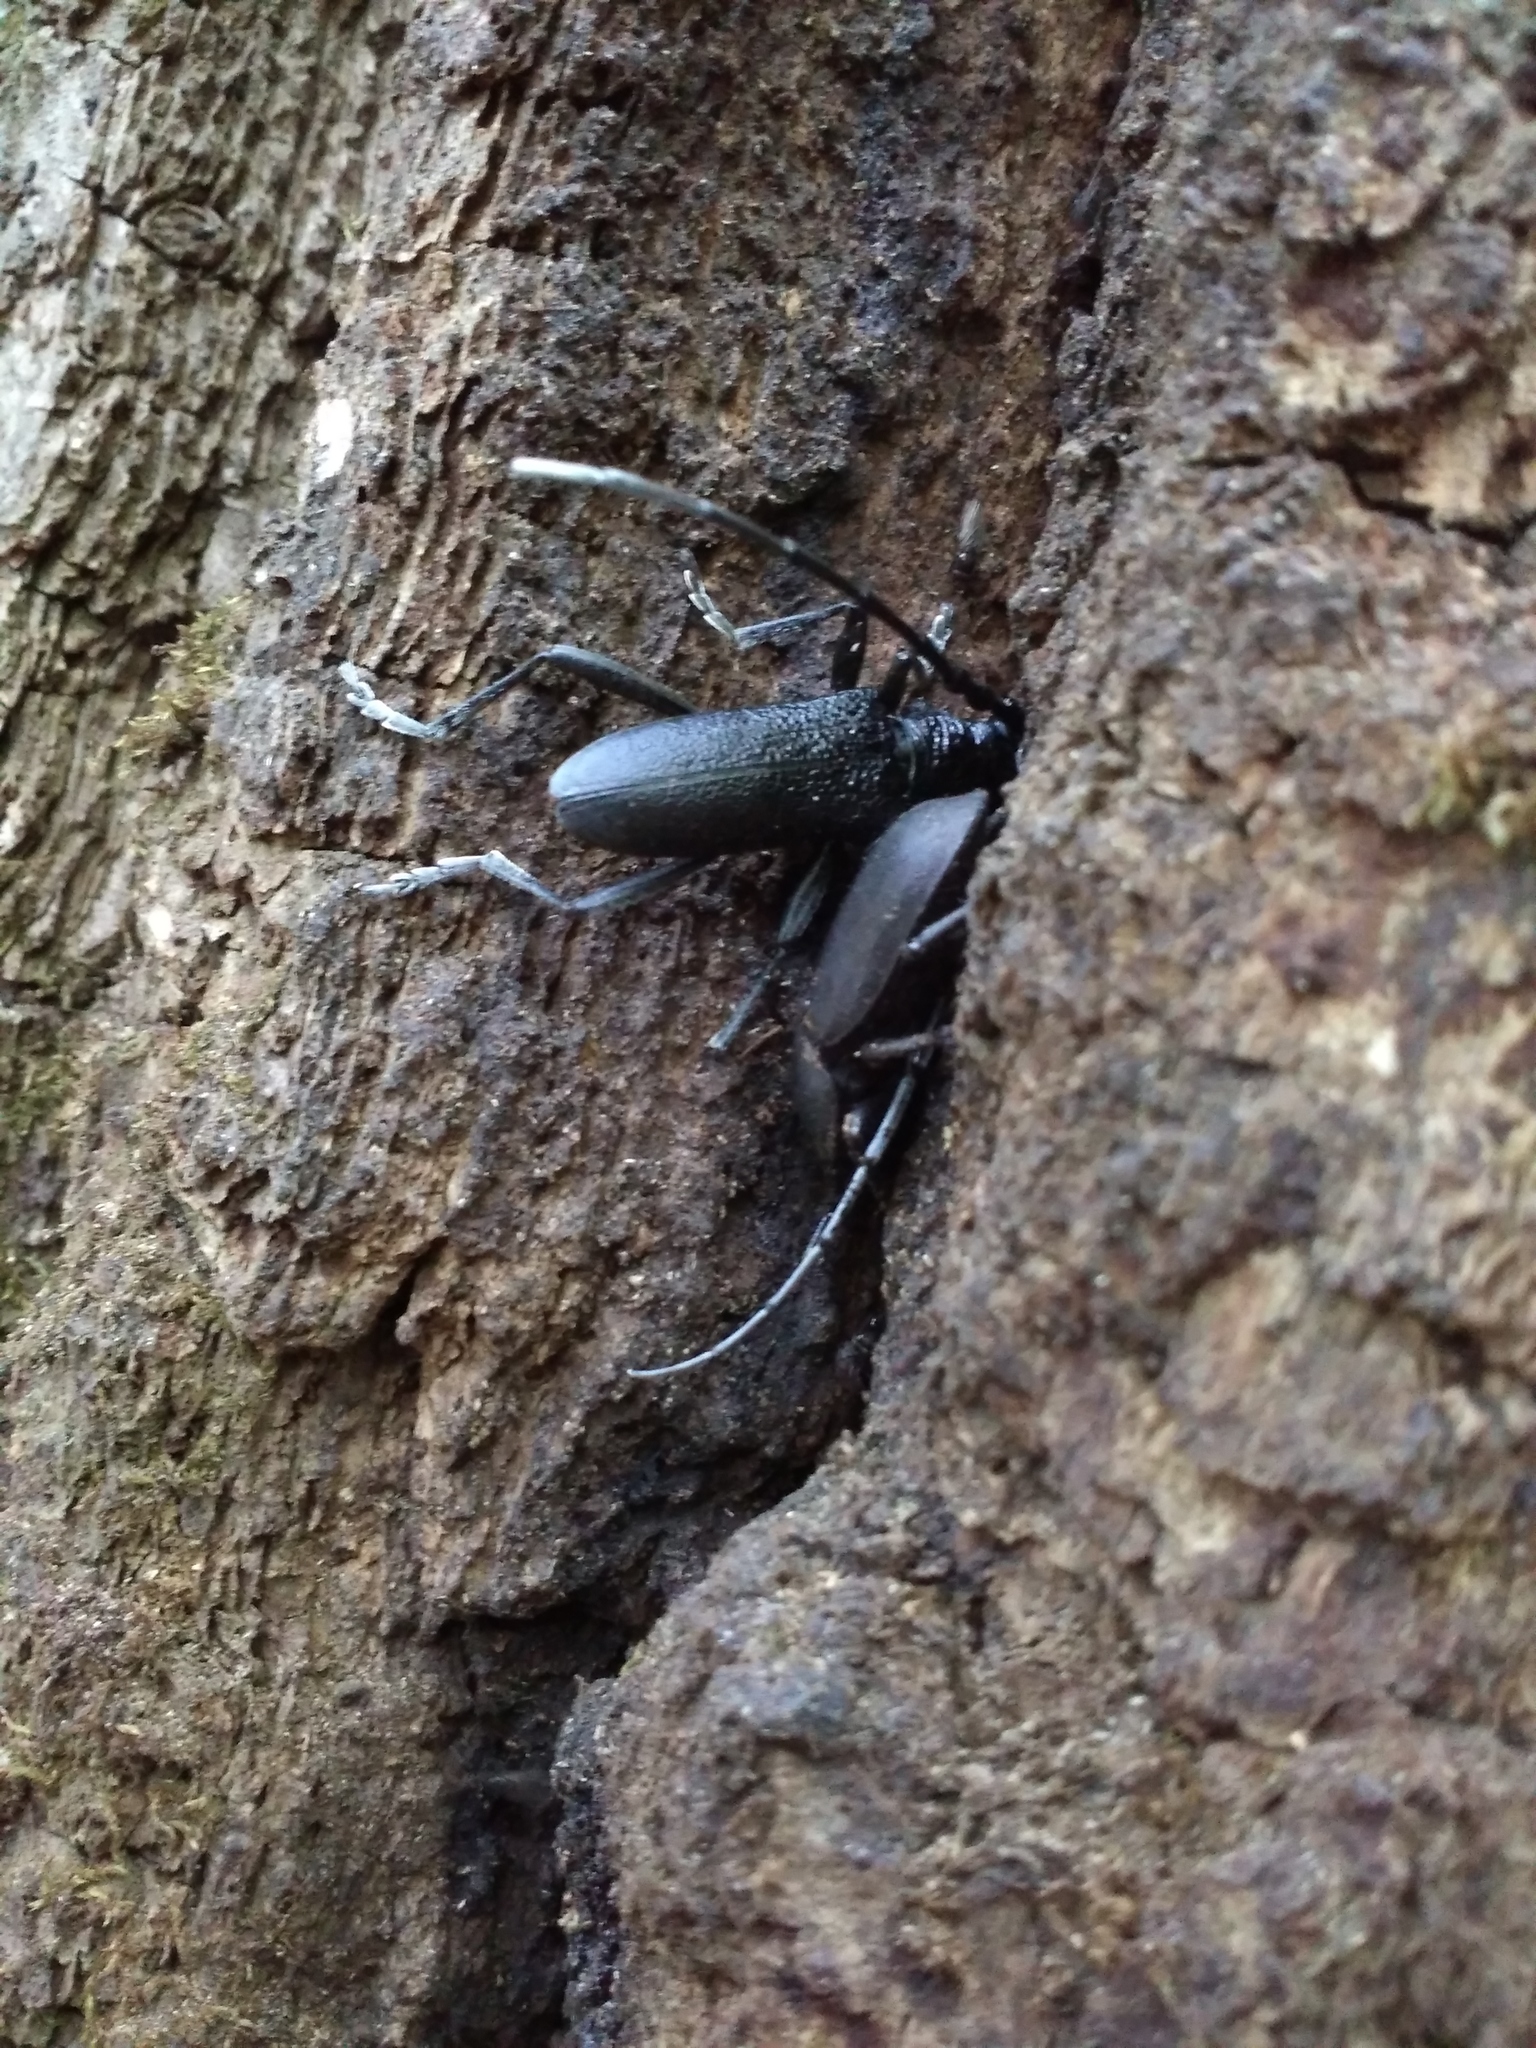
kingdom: Animalia
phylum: Arthropoda
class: Insecta
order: Coleoptera
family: Cerambycidae
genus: Cerambyx
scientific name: Cerambyx scopolii
